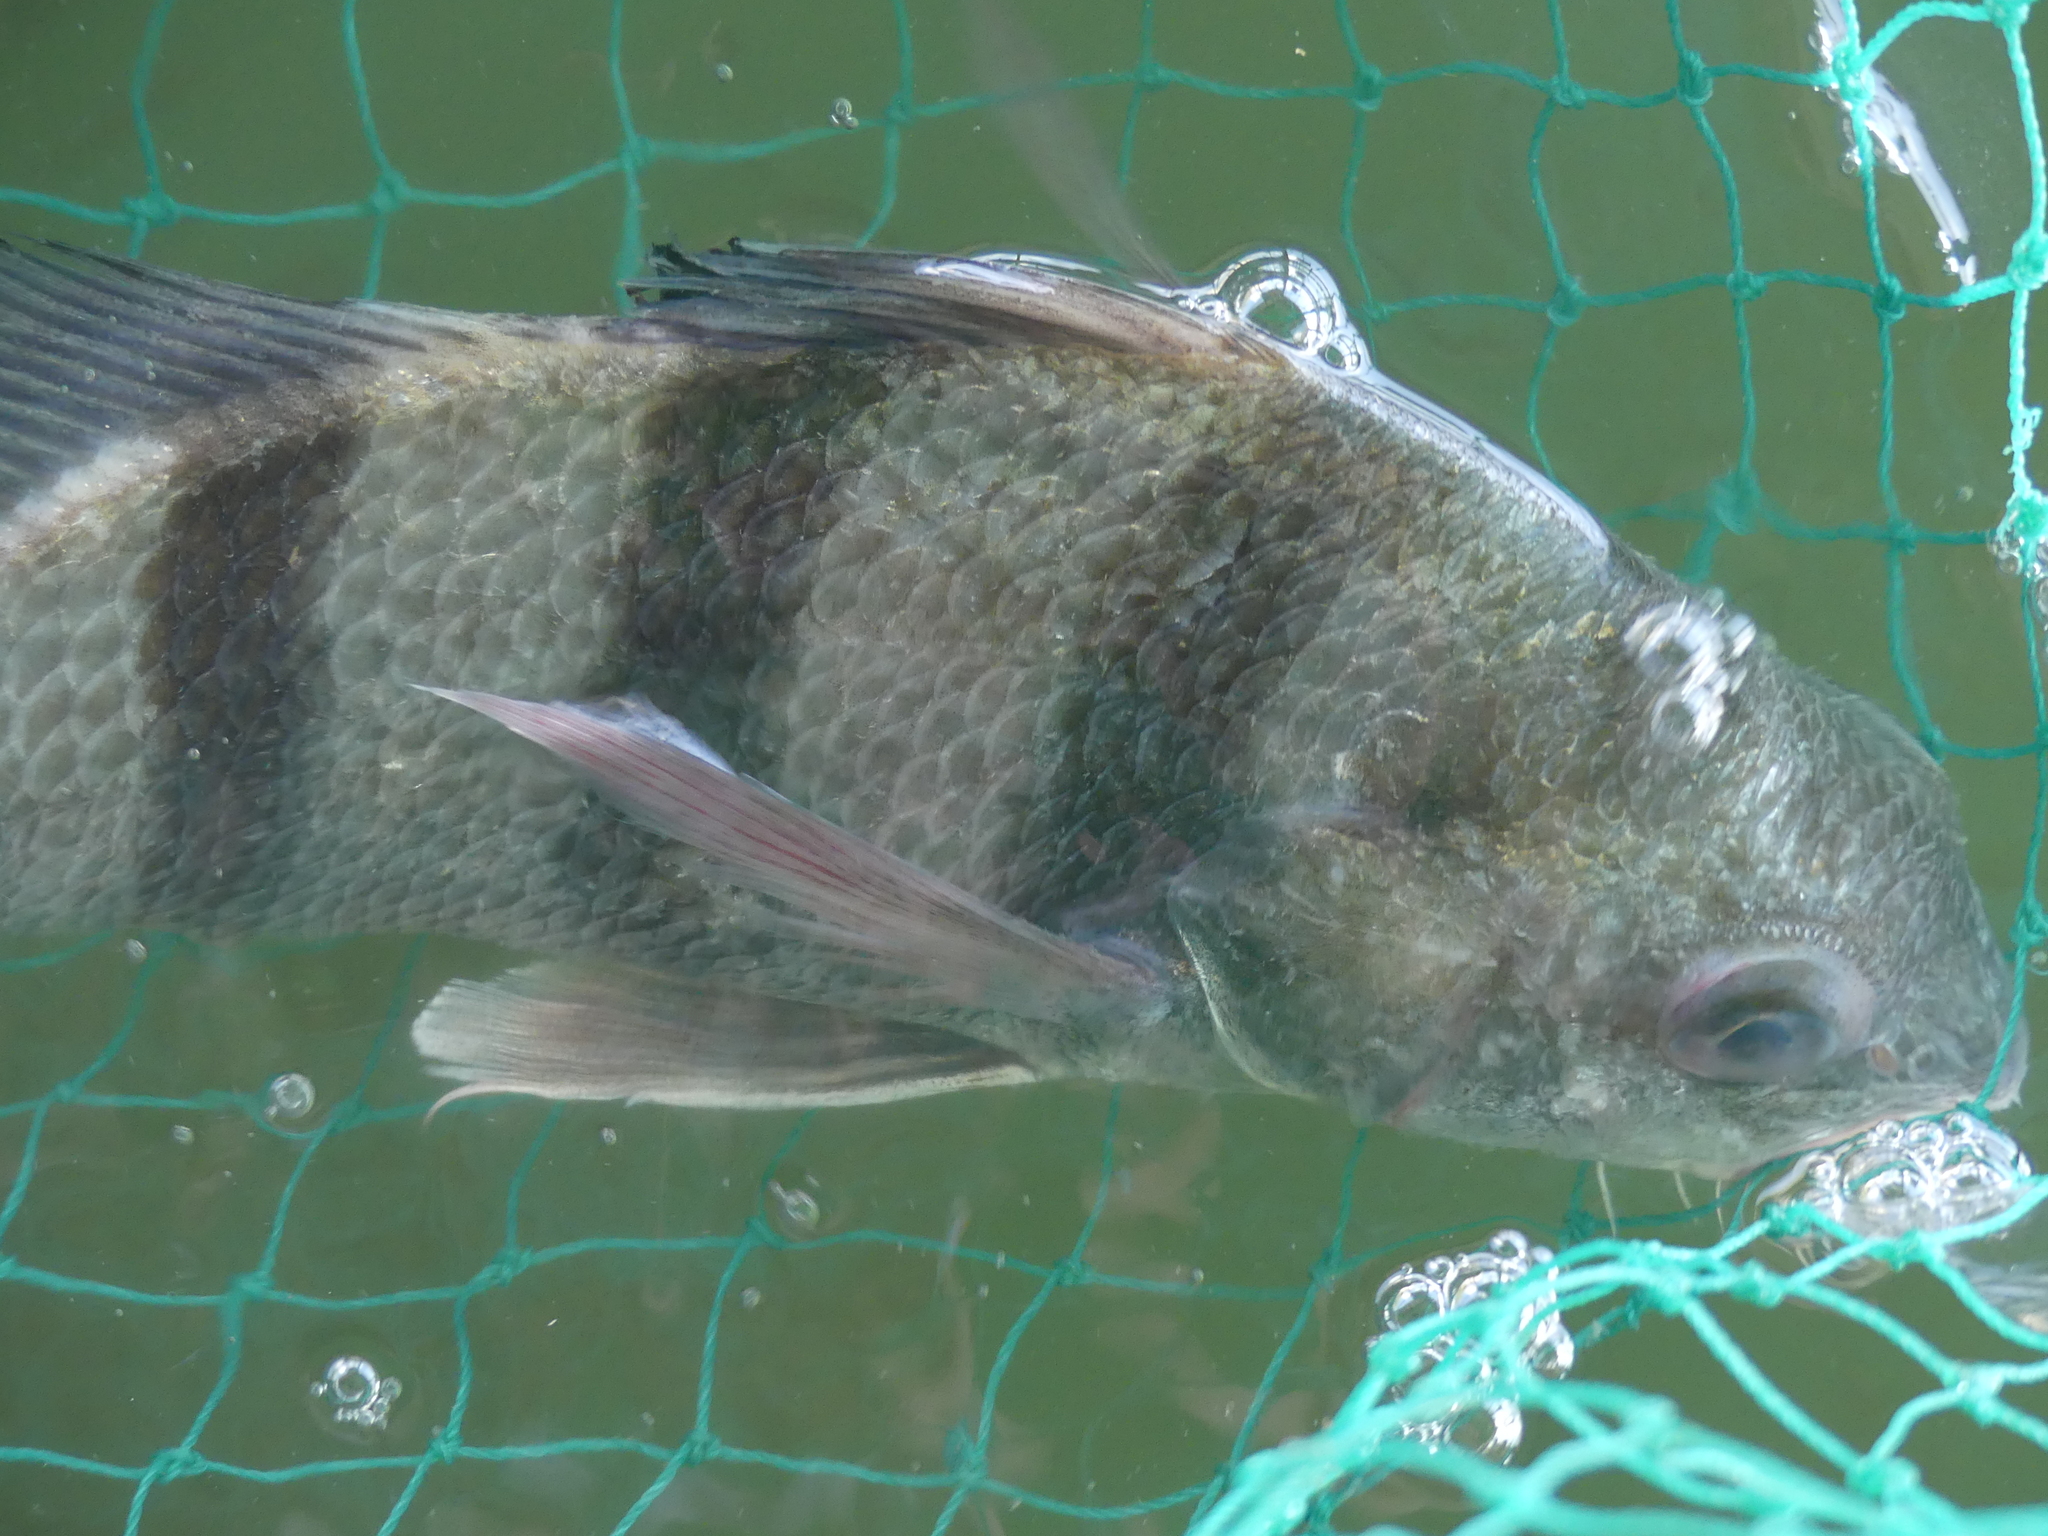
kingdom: Animalia
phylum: Chordata
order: Perciformes
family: Sciaenidae
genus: Pogonias
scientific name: Pogonias cromis
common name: Black drum
